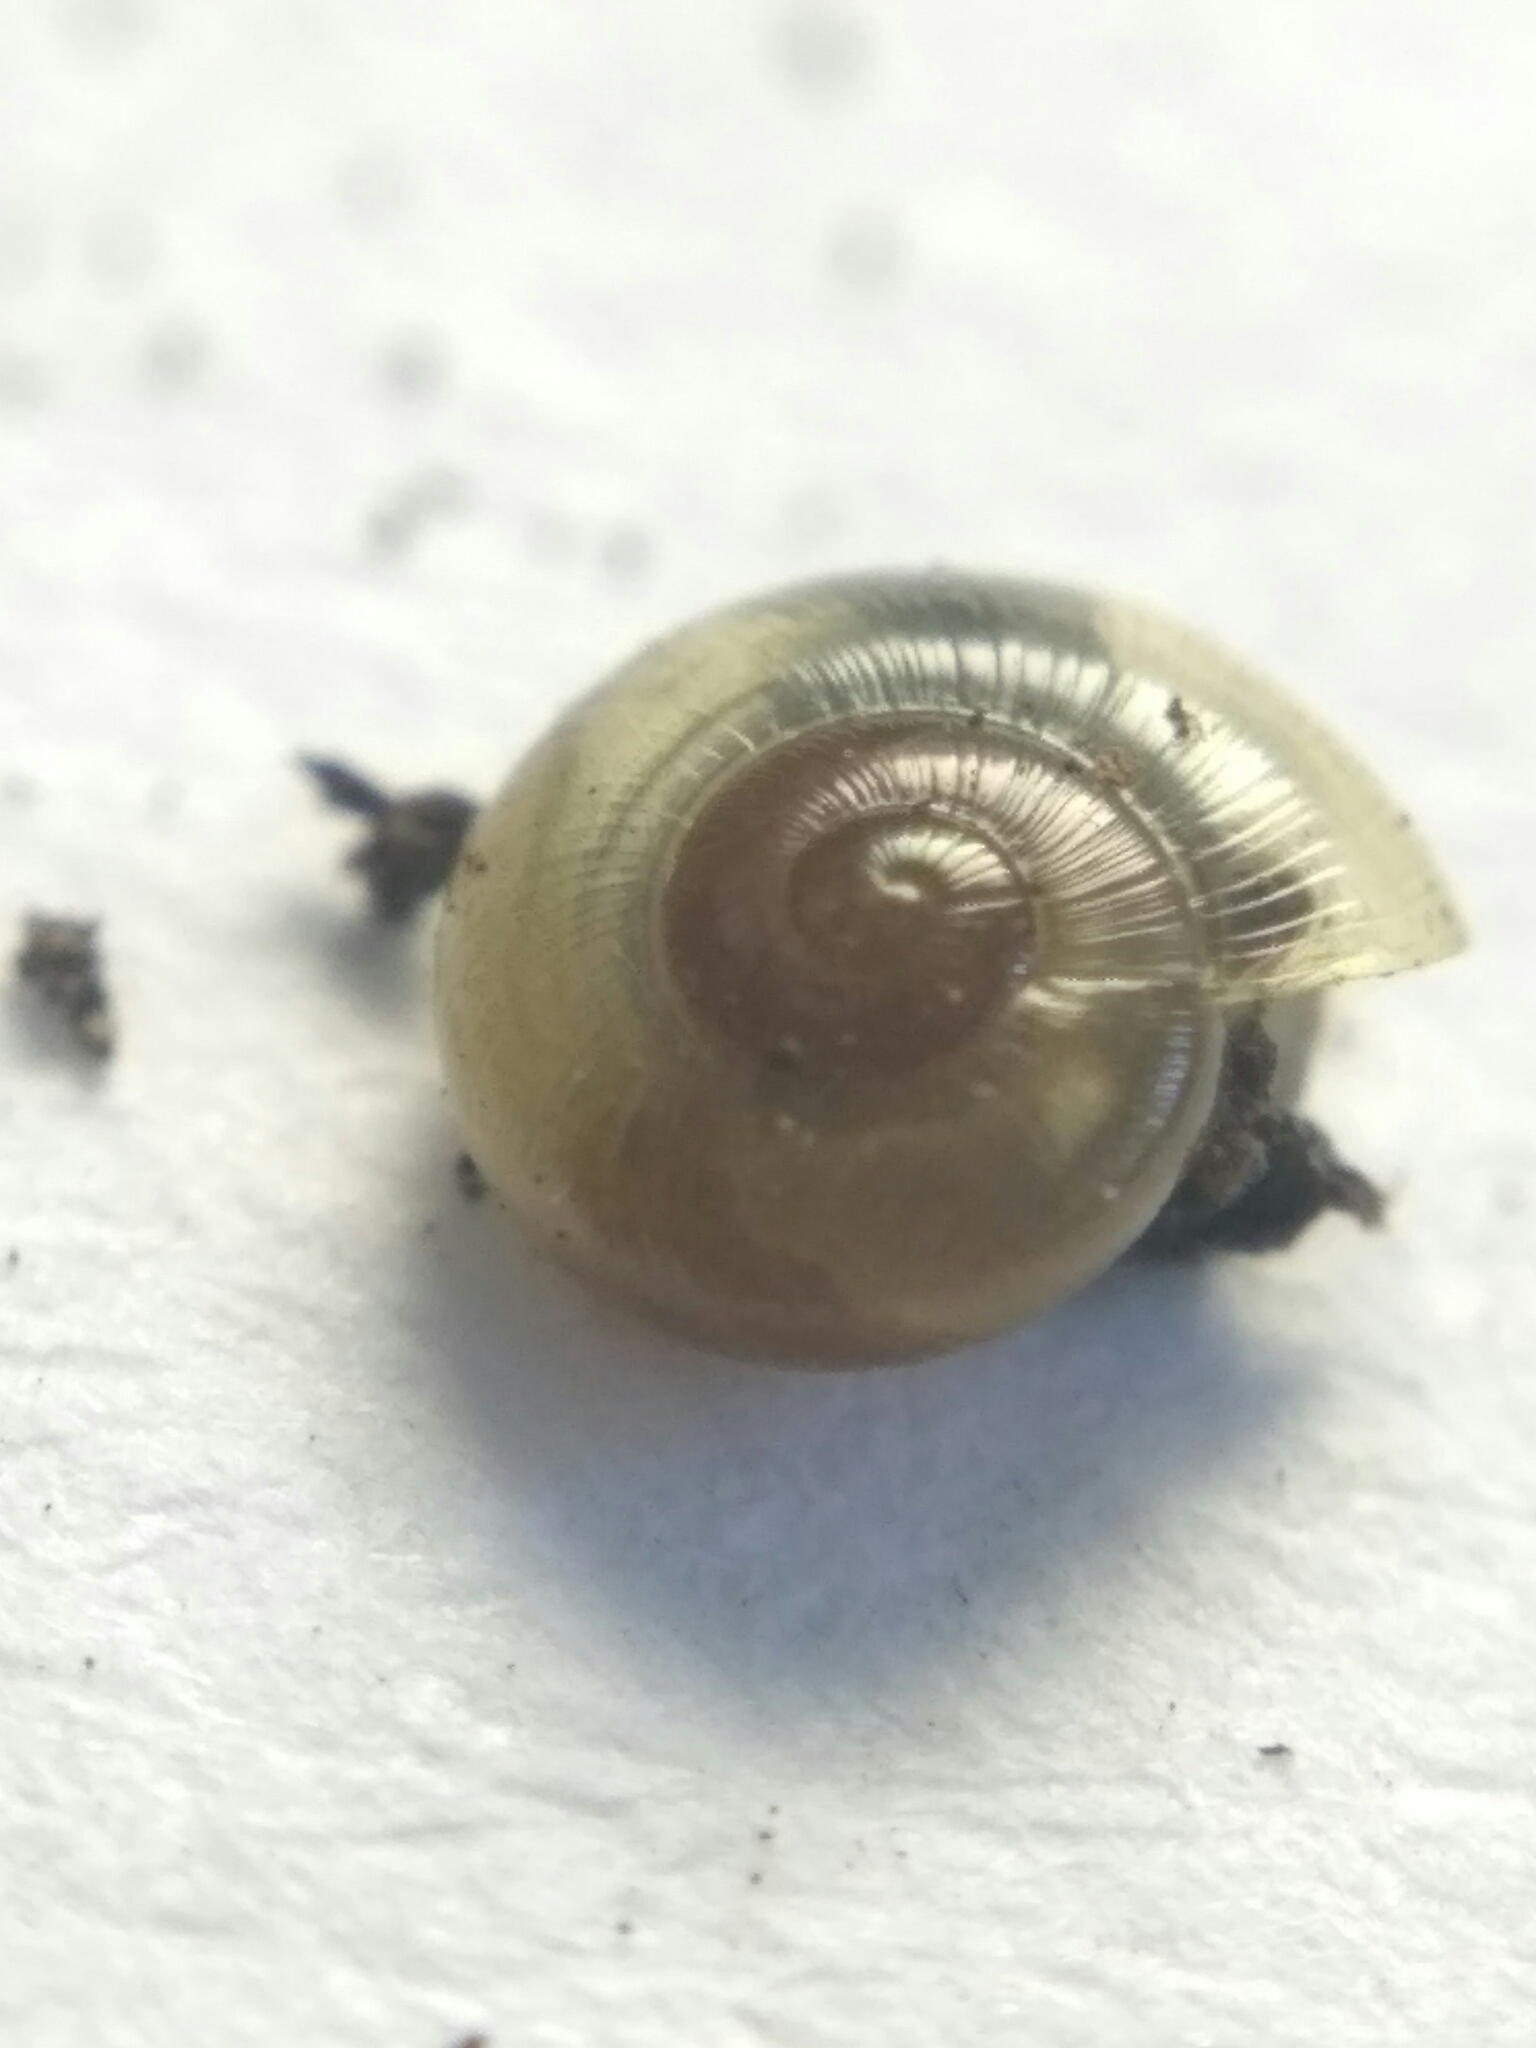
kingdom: Animalia
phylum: Mollusca
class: Gastropoda
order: Stylommatophora
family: Gastrodontidae
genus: Perpolita
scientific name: Perpolita petronella
